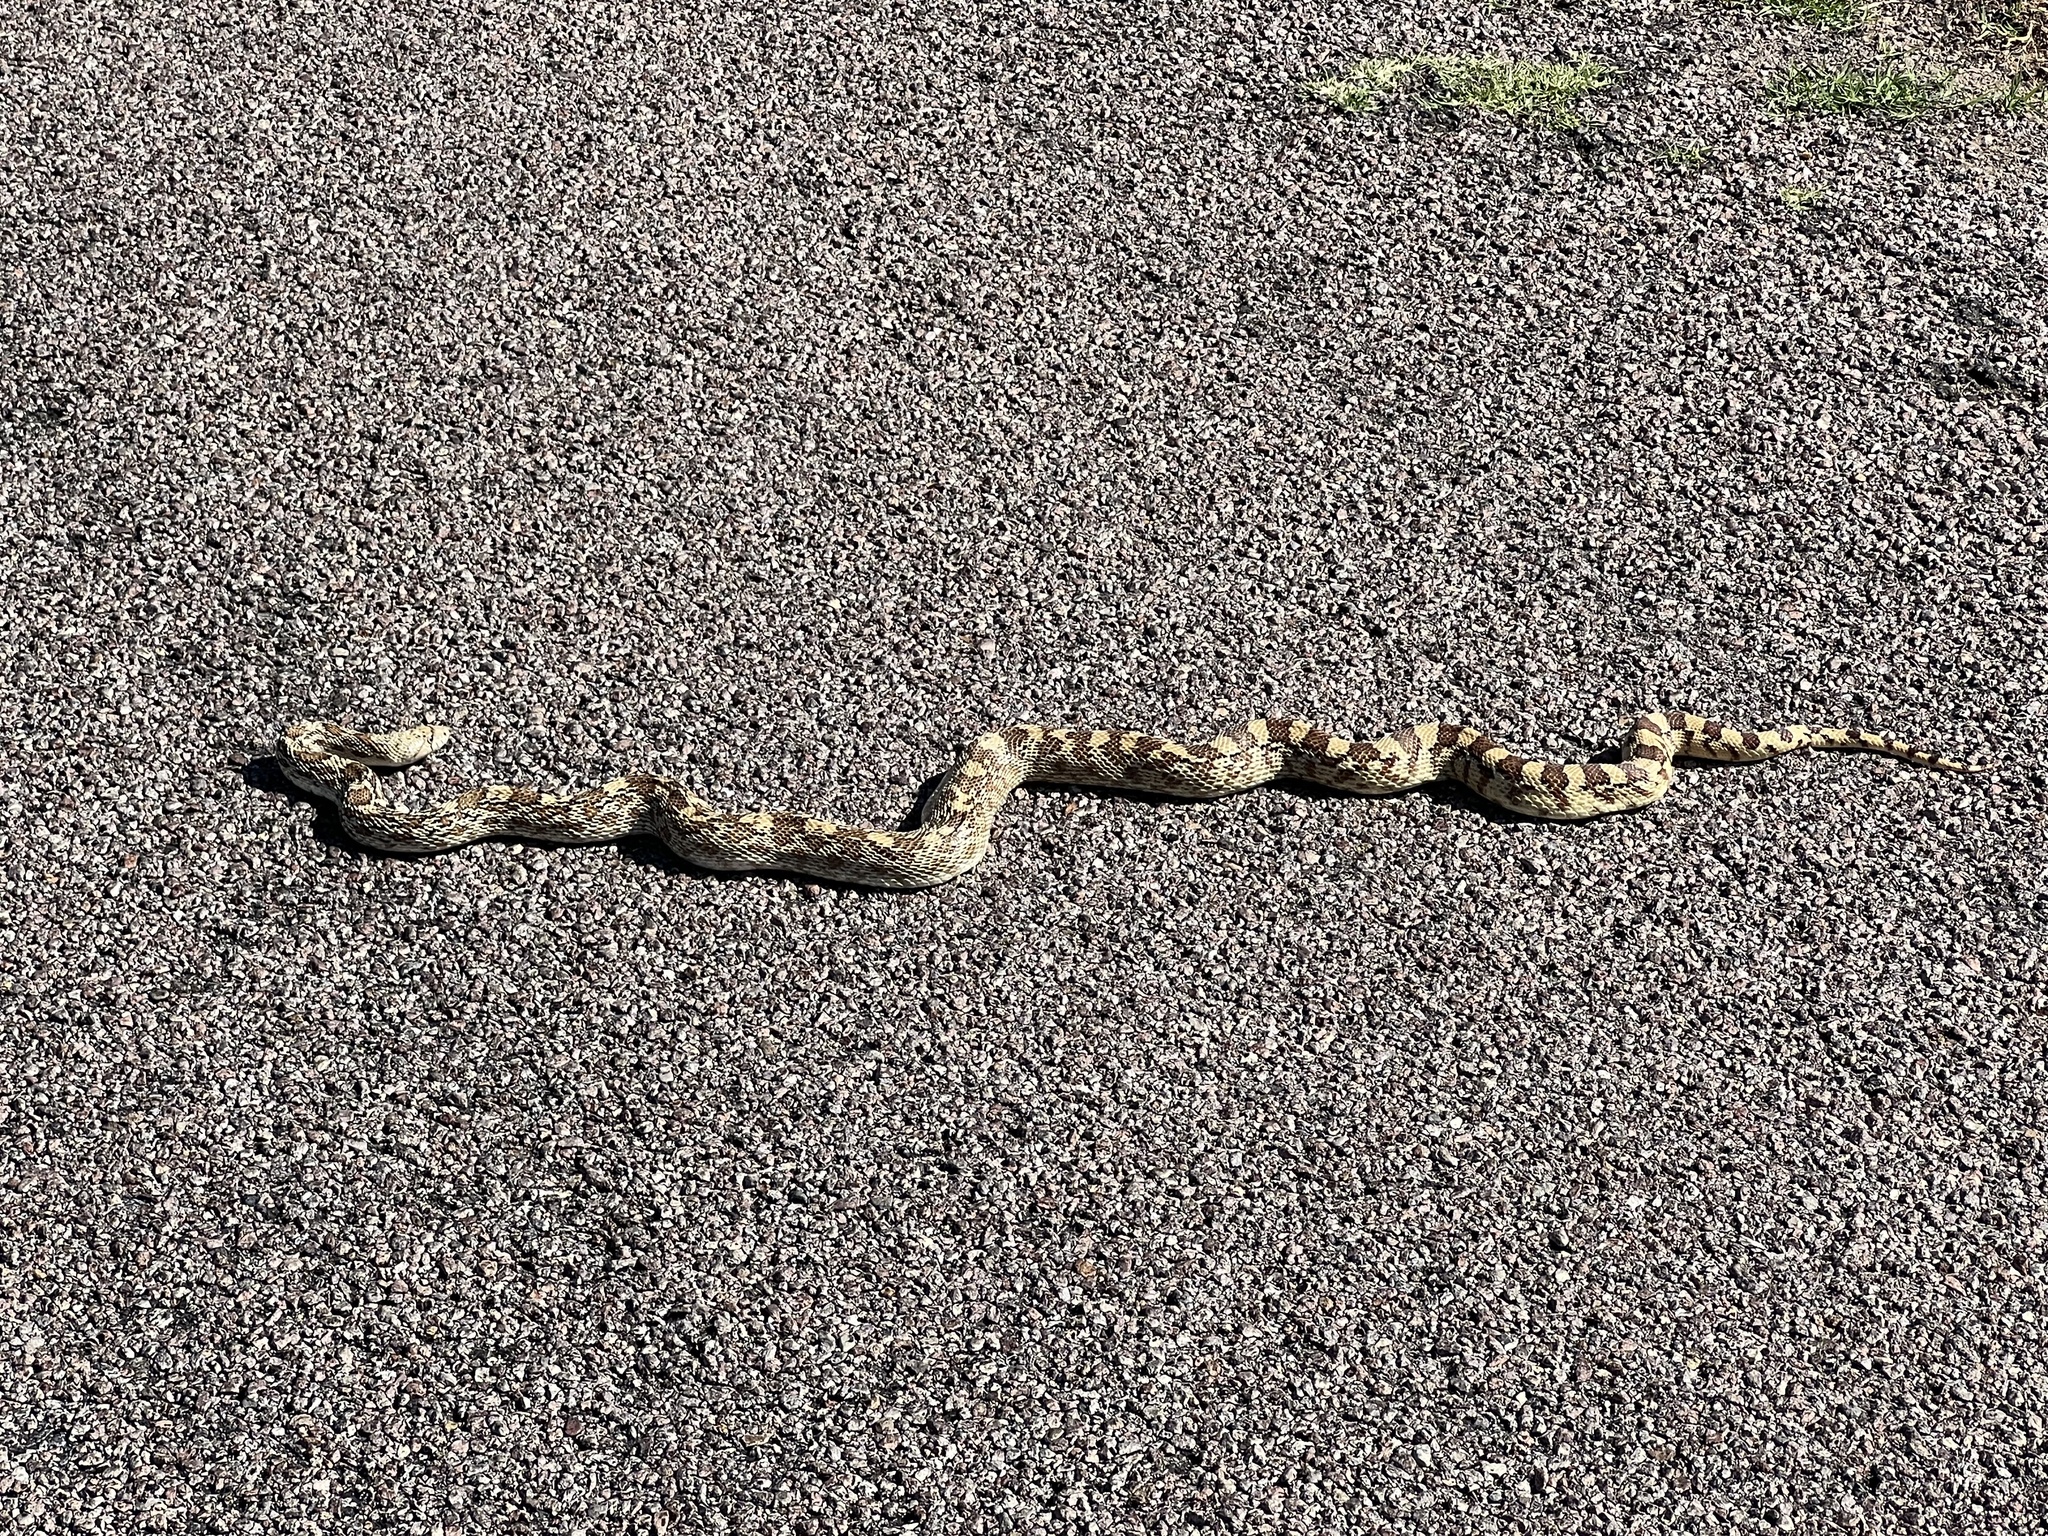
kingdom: Animalia
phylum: Chordata
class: Squamata
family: Colubridae
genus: Pituophis
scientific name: Pituophis catenifer
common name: Gopher snake
